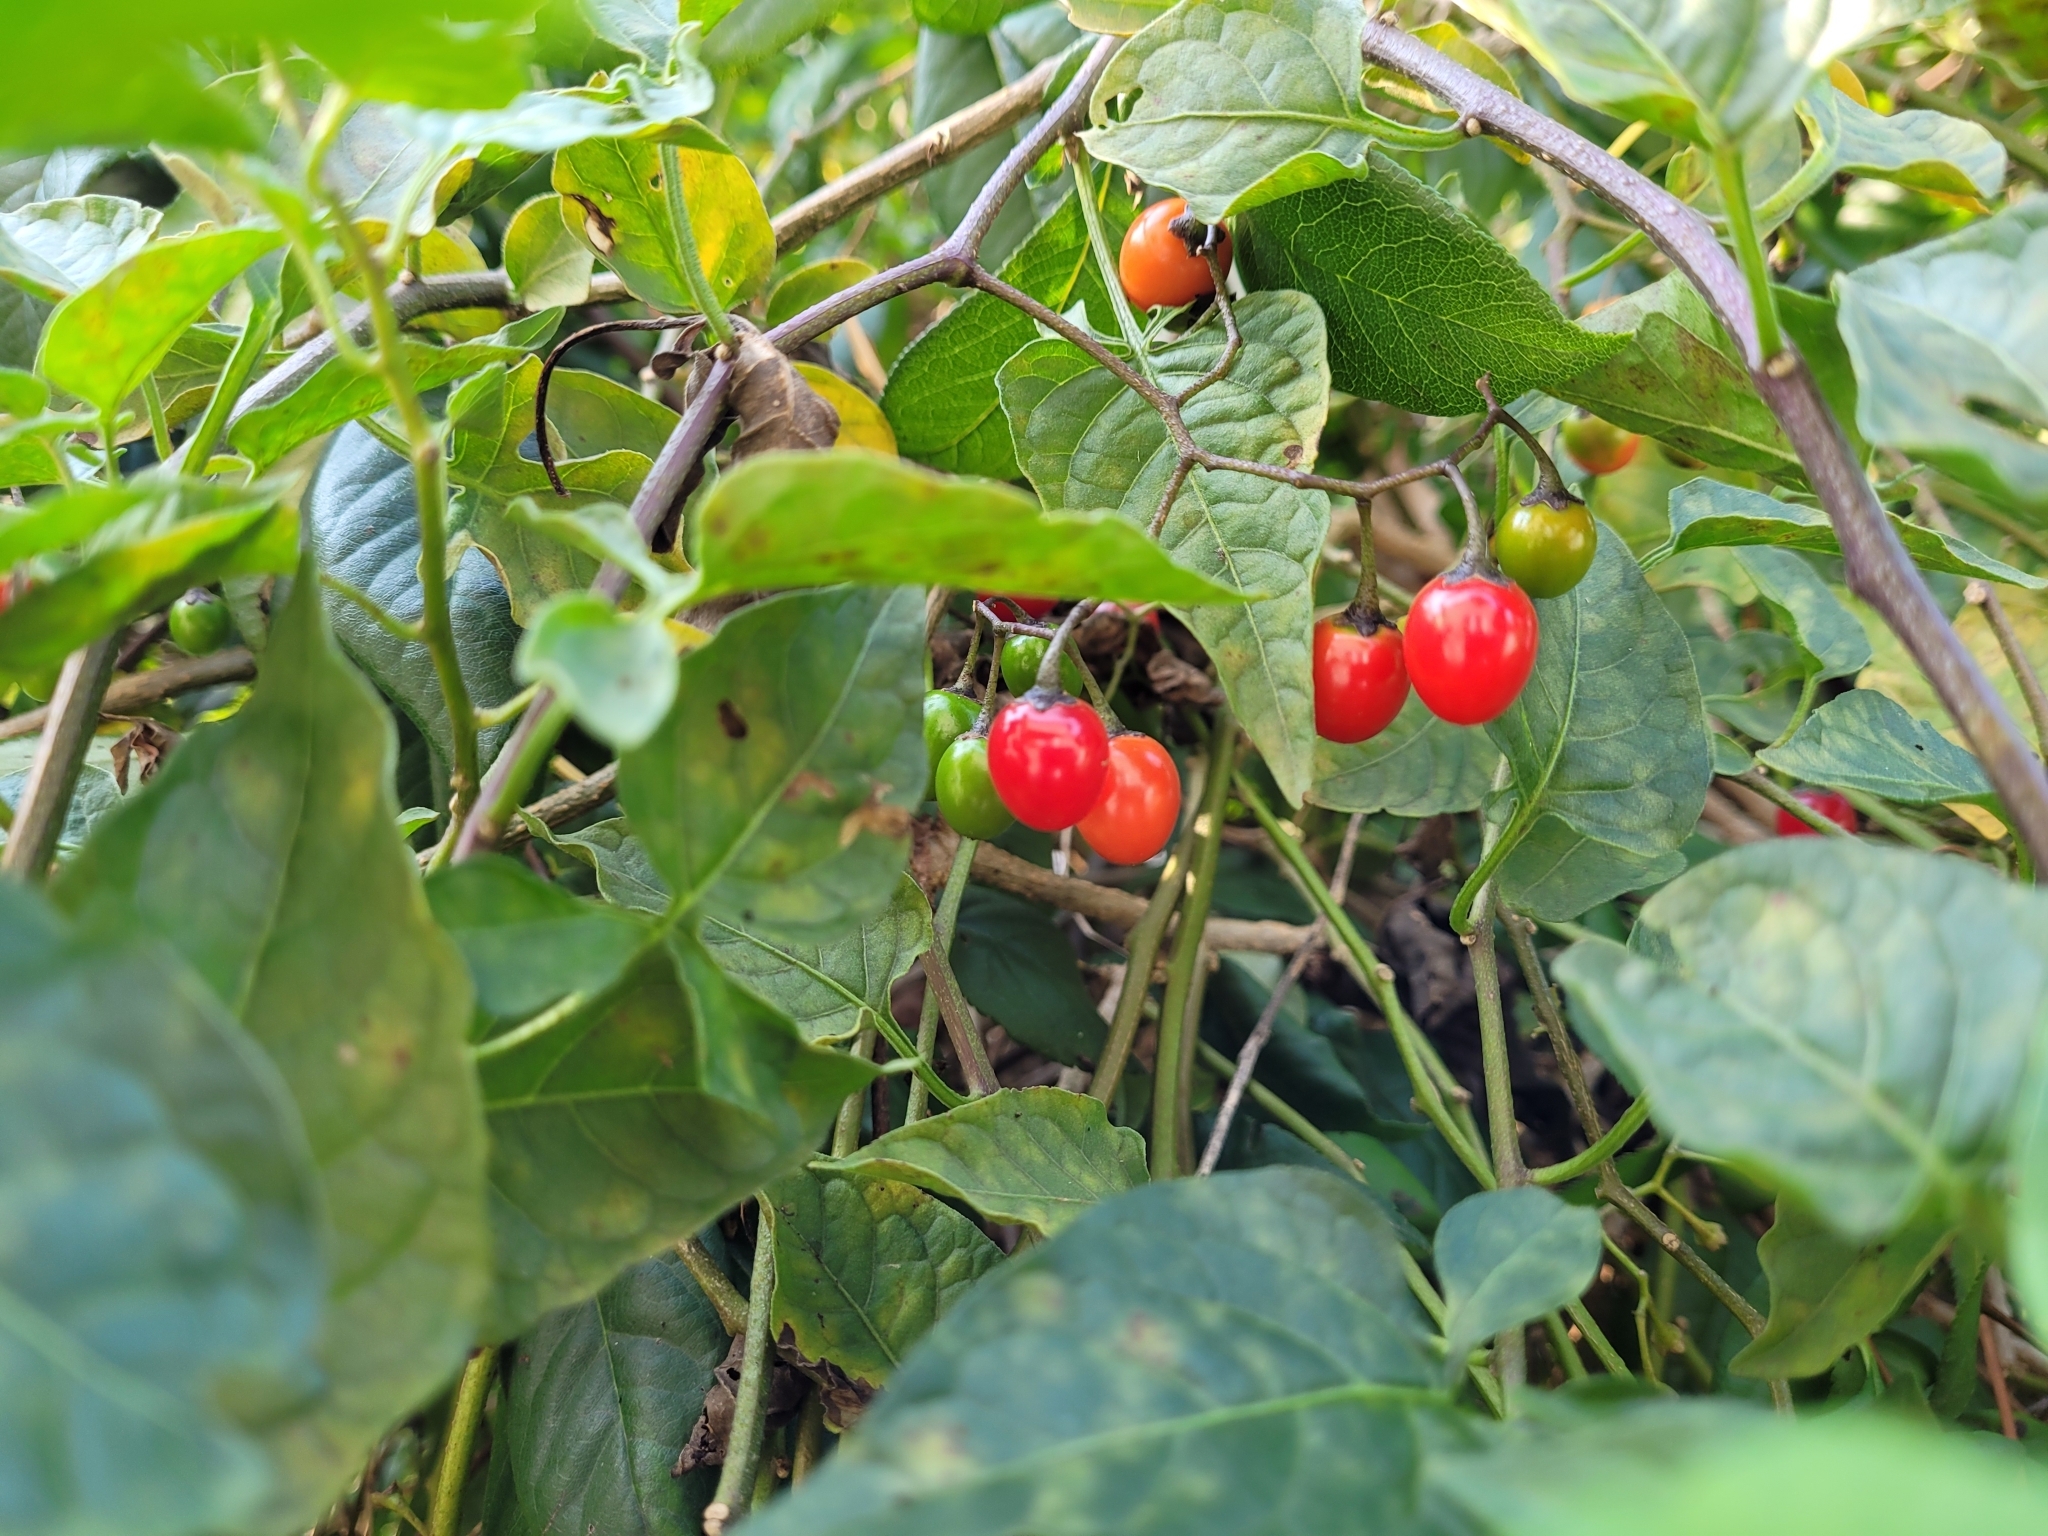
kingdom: Plantae
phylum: Tracheophyta
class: Magnoliopsida
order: Solanales
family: Solanaceae
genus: Solanum
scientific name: Solanum dulcamara
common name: Climbing nightshade
